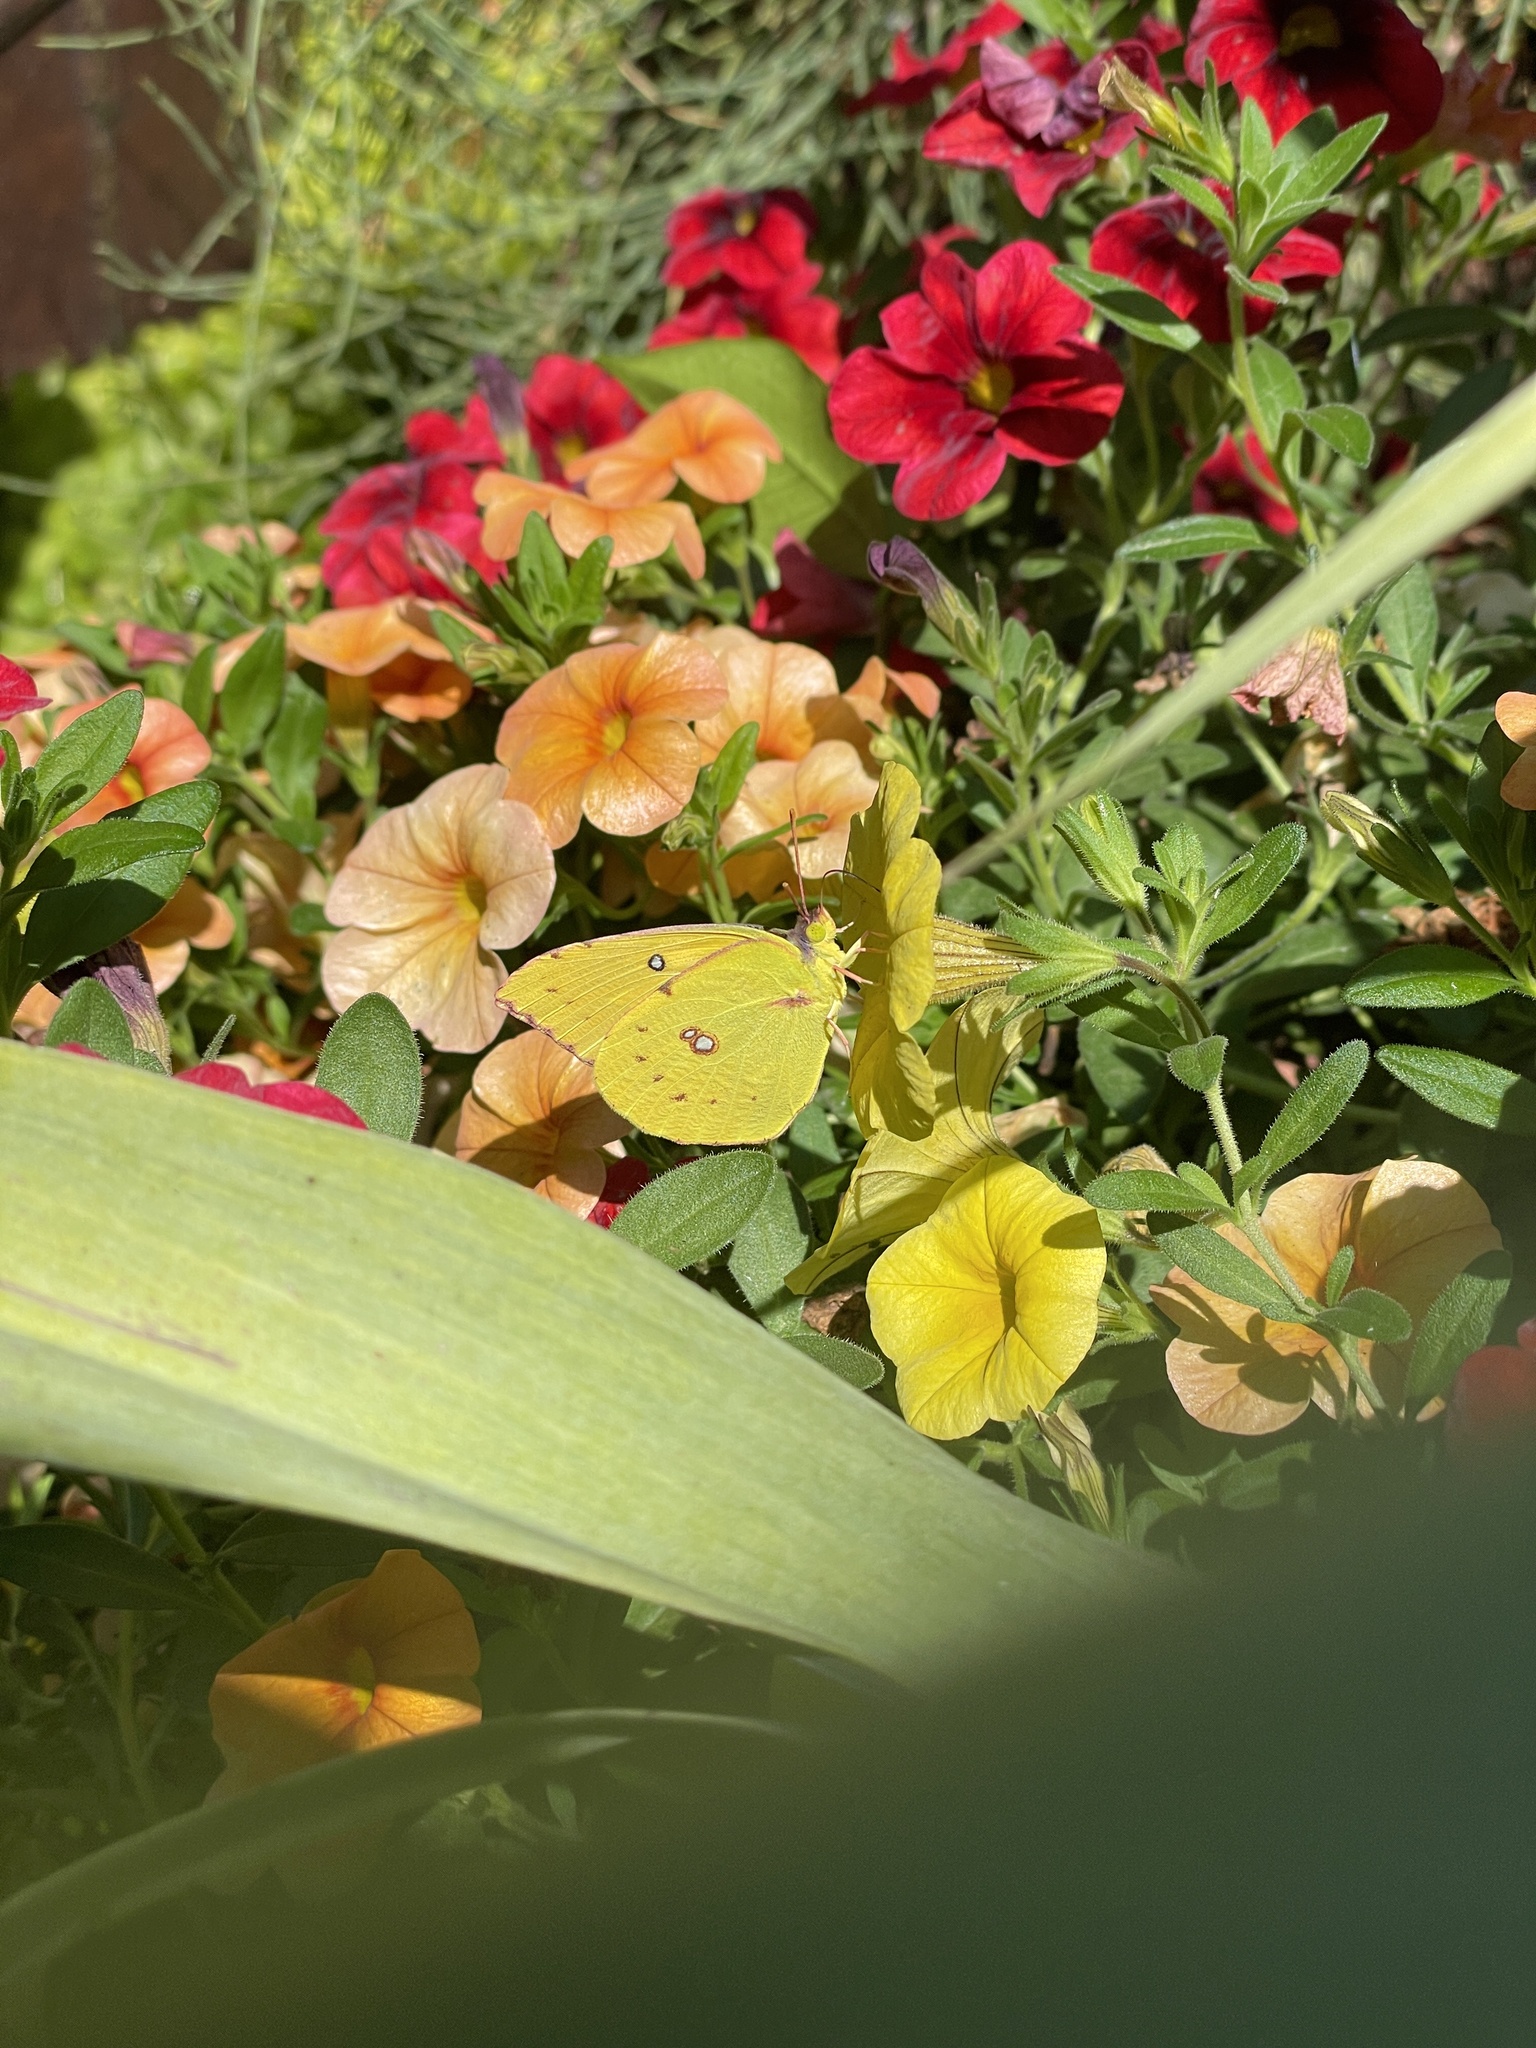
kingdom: Animalia
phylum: Arthropoda
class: Insecta
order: Lepidoptera
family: Pieridae
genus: Zerene
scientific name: Zerene eurydice
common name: California dogface
